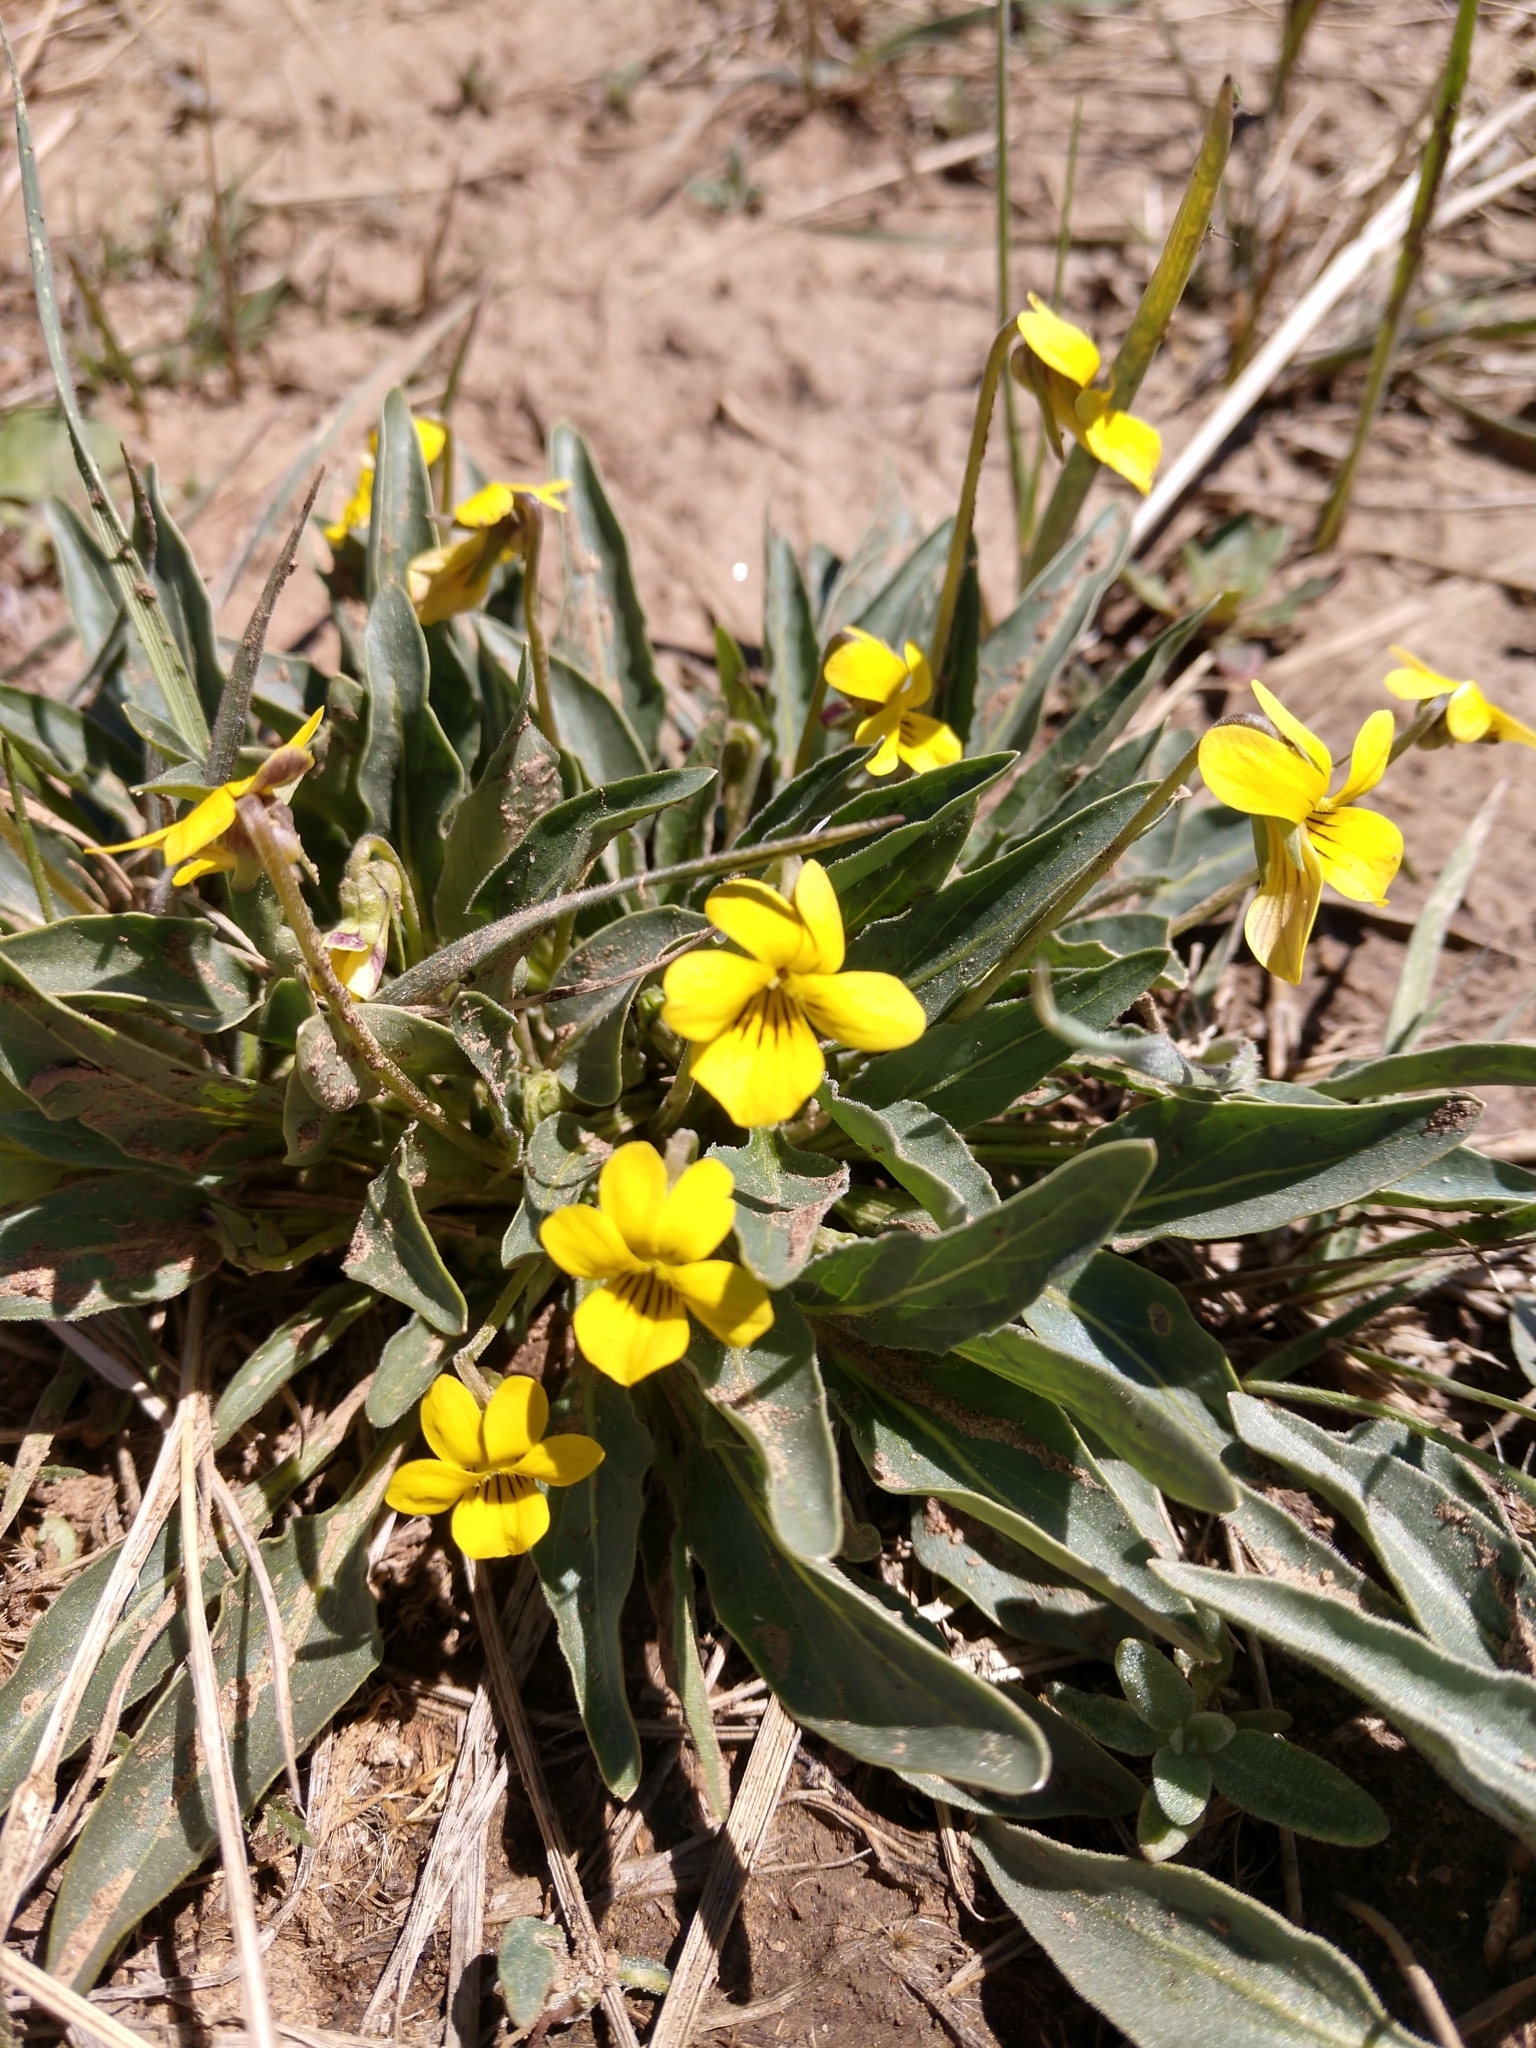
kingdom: Plantae
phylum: Tracheophyta
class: Magnoliopsida
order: Malpighiales
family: Violaceae
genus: Viola
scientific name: Viola nuttallii
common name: Yellow prairie violet
